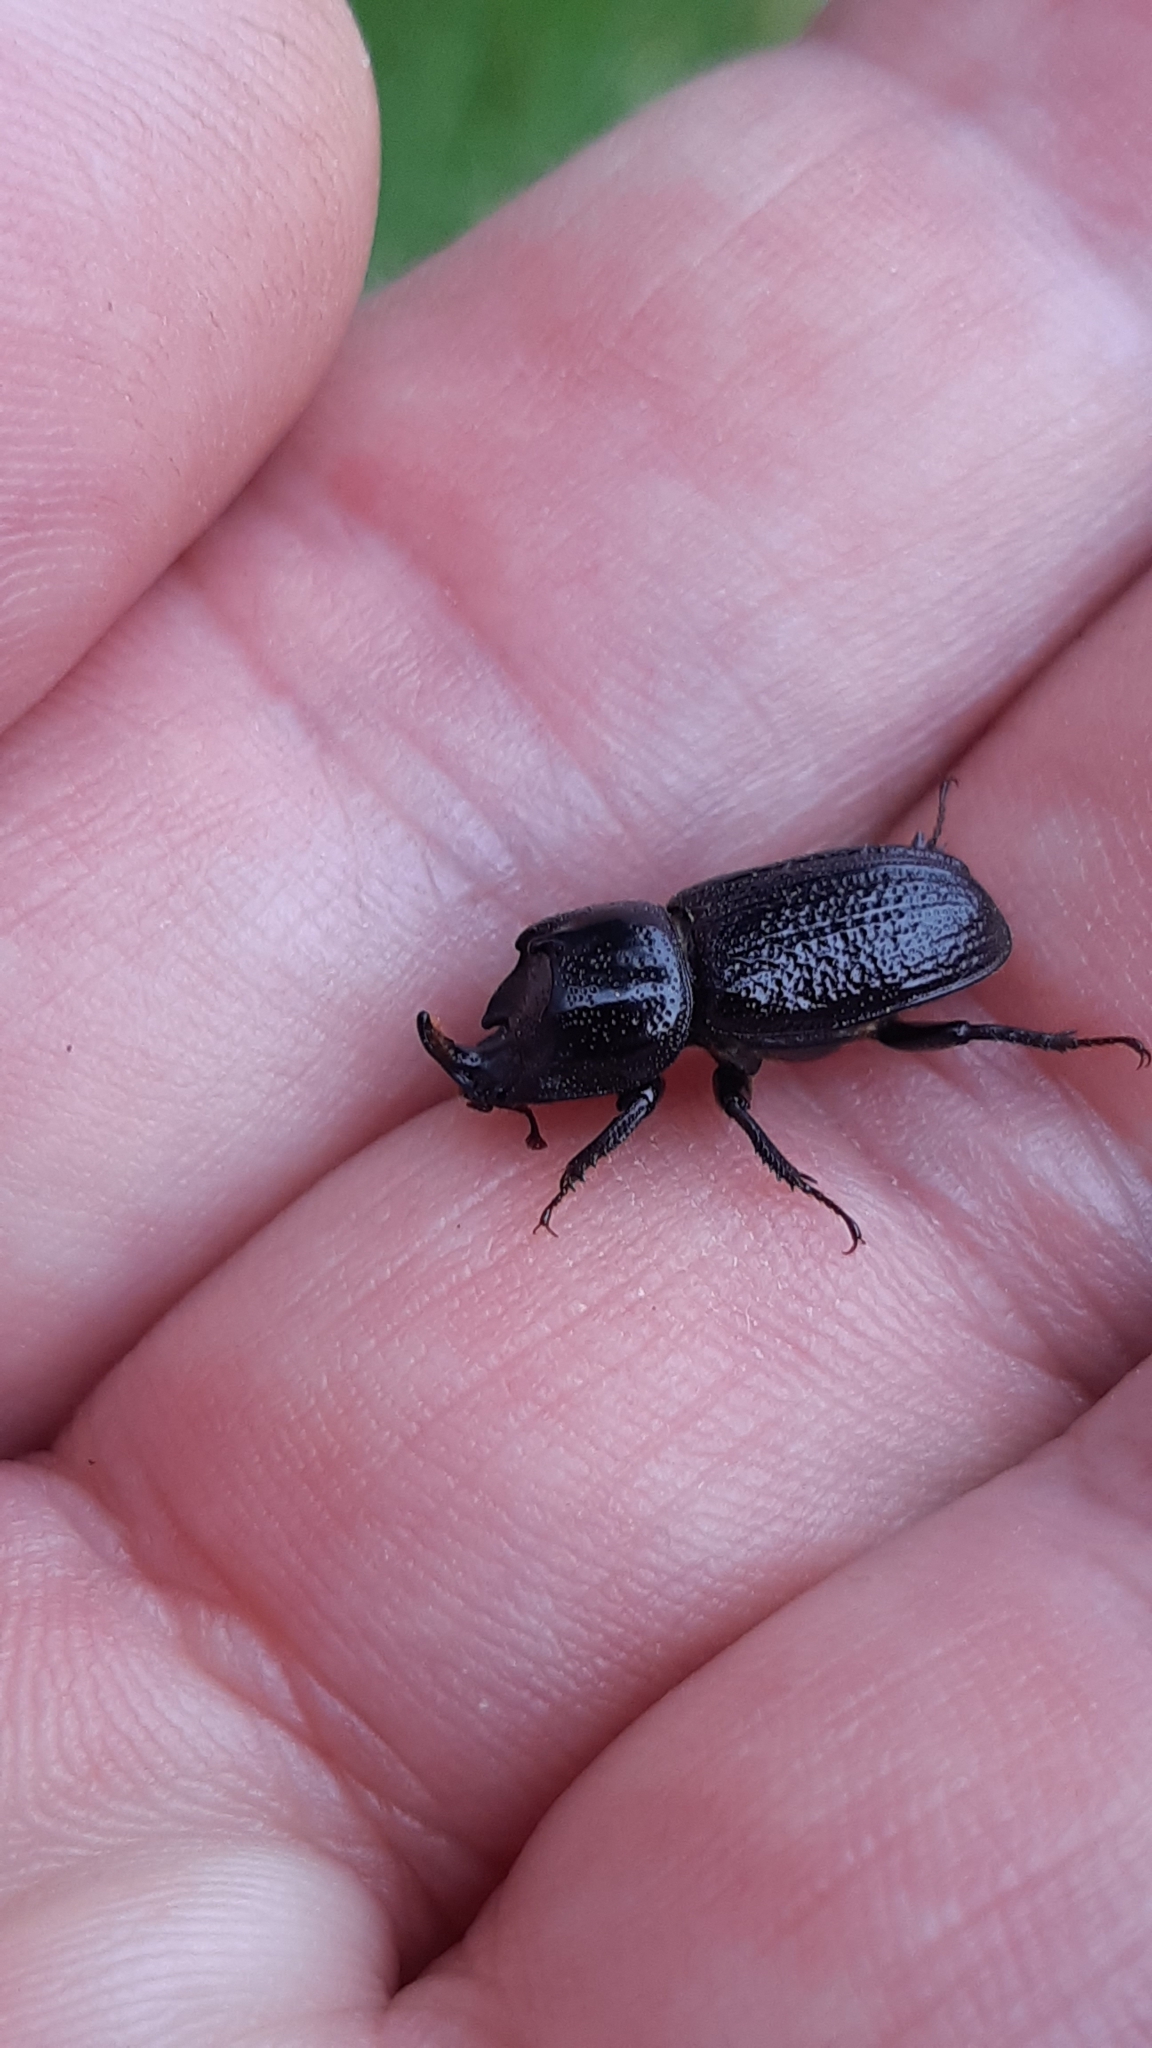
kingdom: Animalia
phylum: Arthropoda
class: Insecta
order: Coleoptera
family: Lucanidae
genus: Sinodendron
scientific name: Sinodendron cylindricum
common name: Rhinoceros beetle
